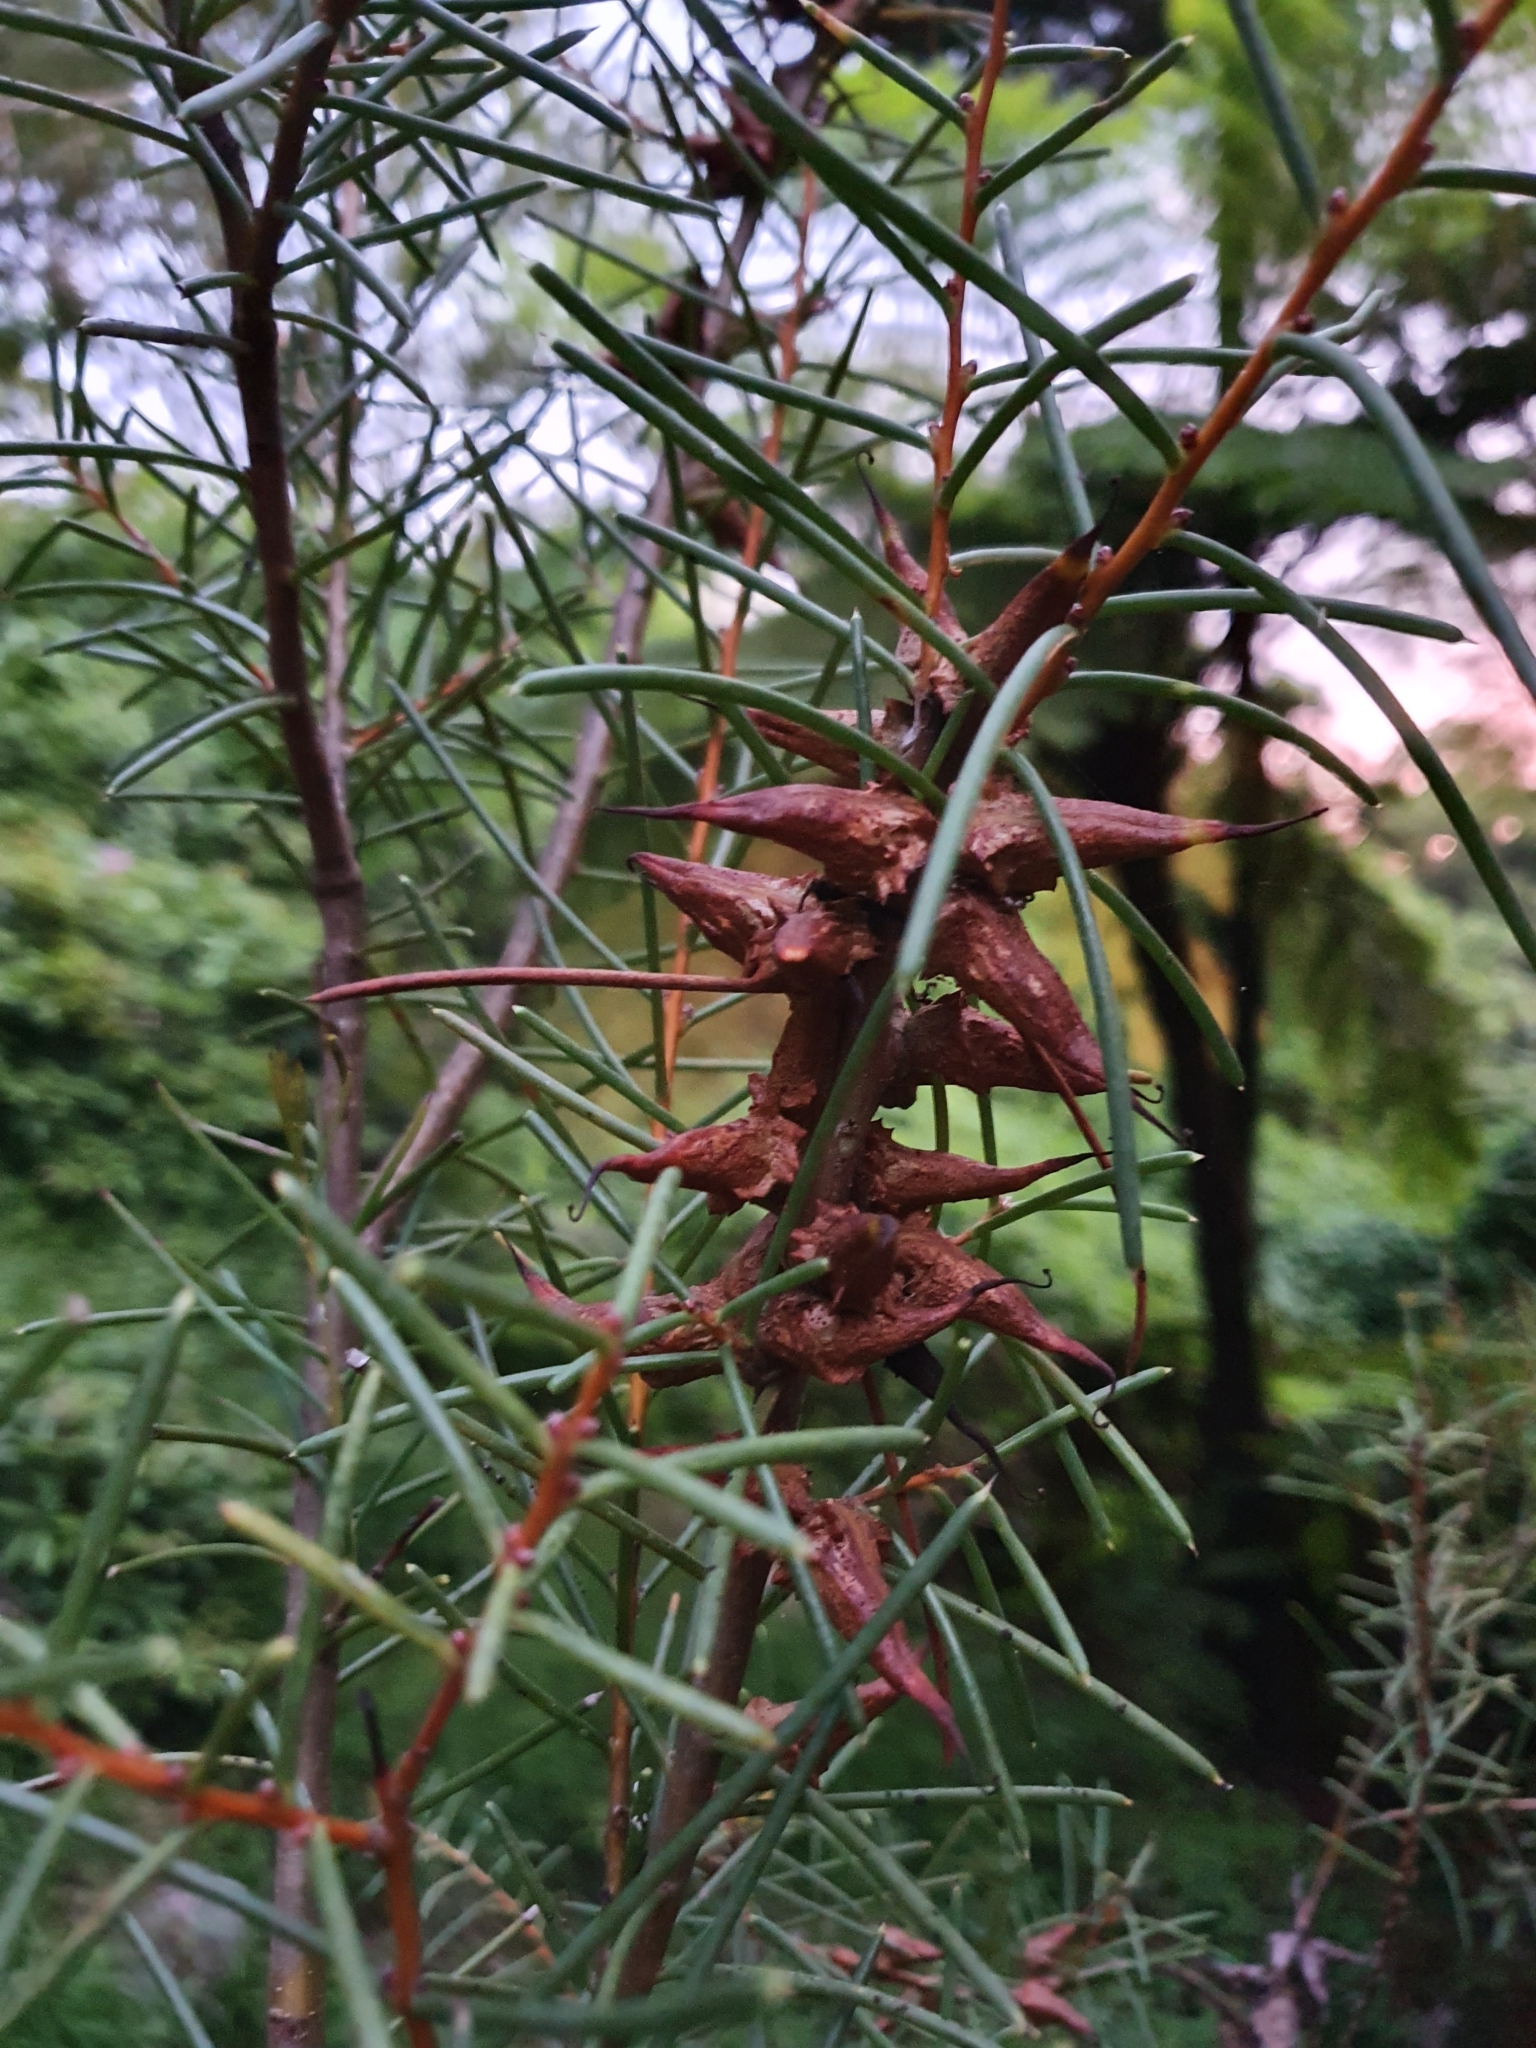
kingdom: Plantae
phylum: Tracheophyta
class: Magnoliopsida
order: Proteales
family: Proteaceae
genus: Hakea
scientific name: Hakea teretifolia
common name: Dagger hakea
